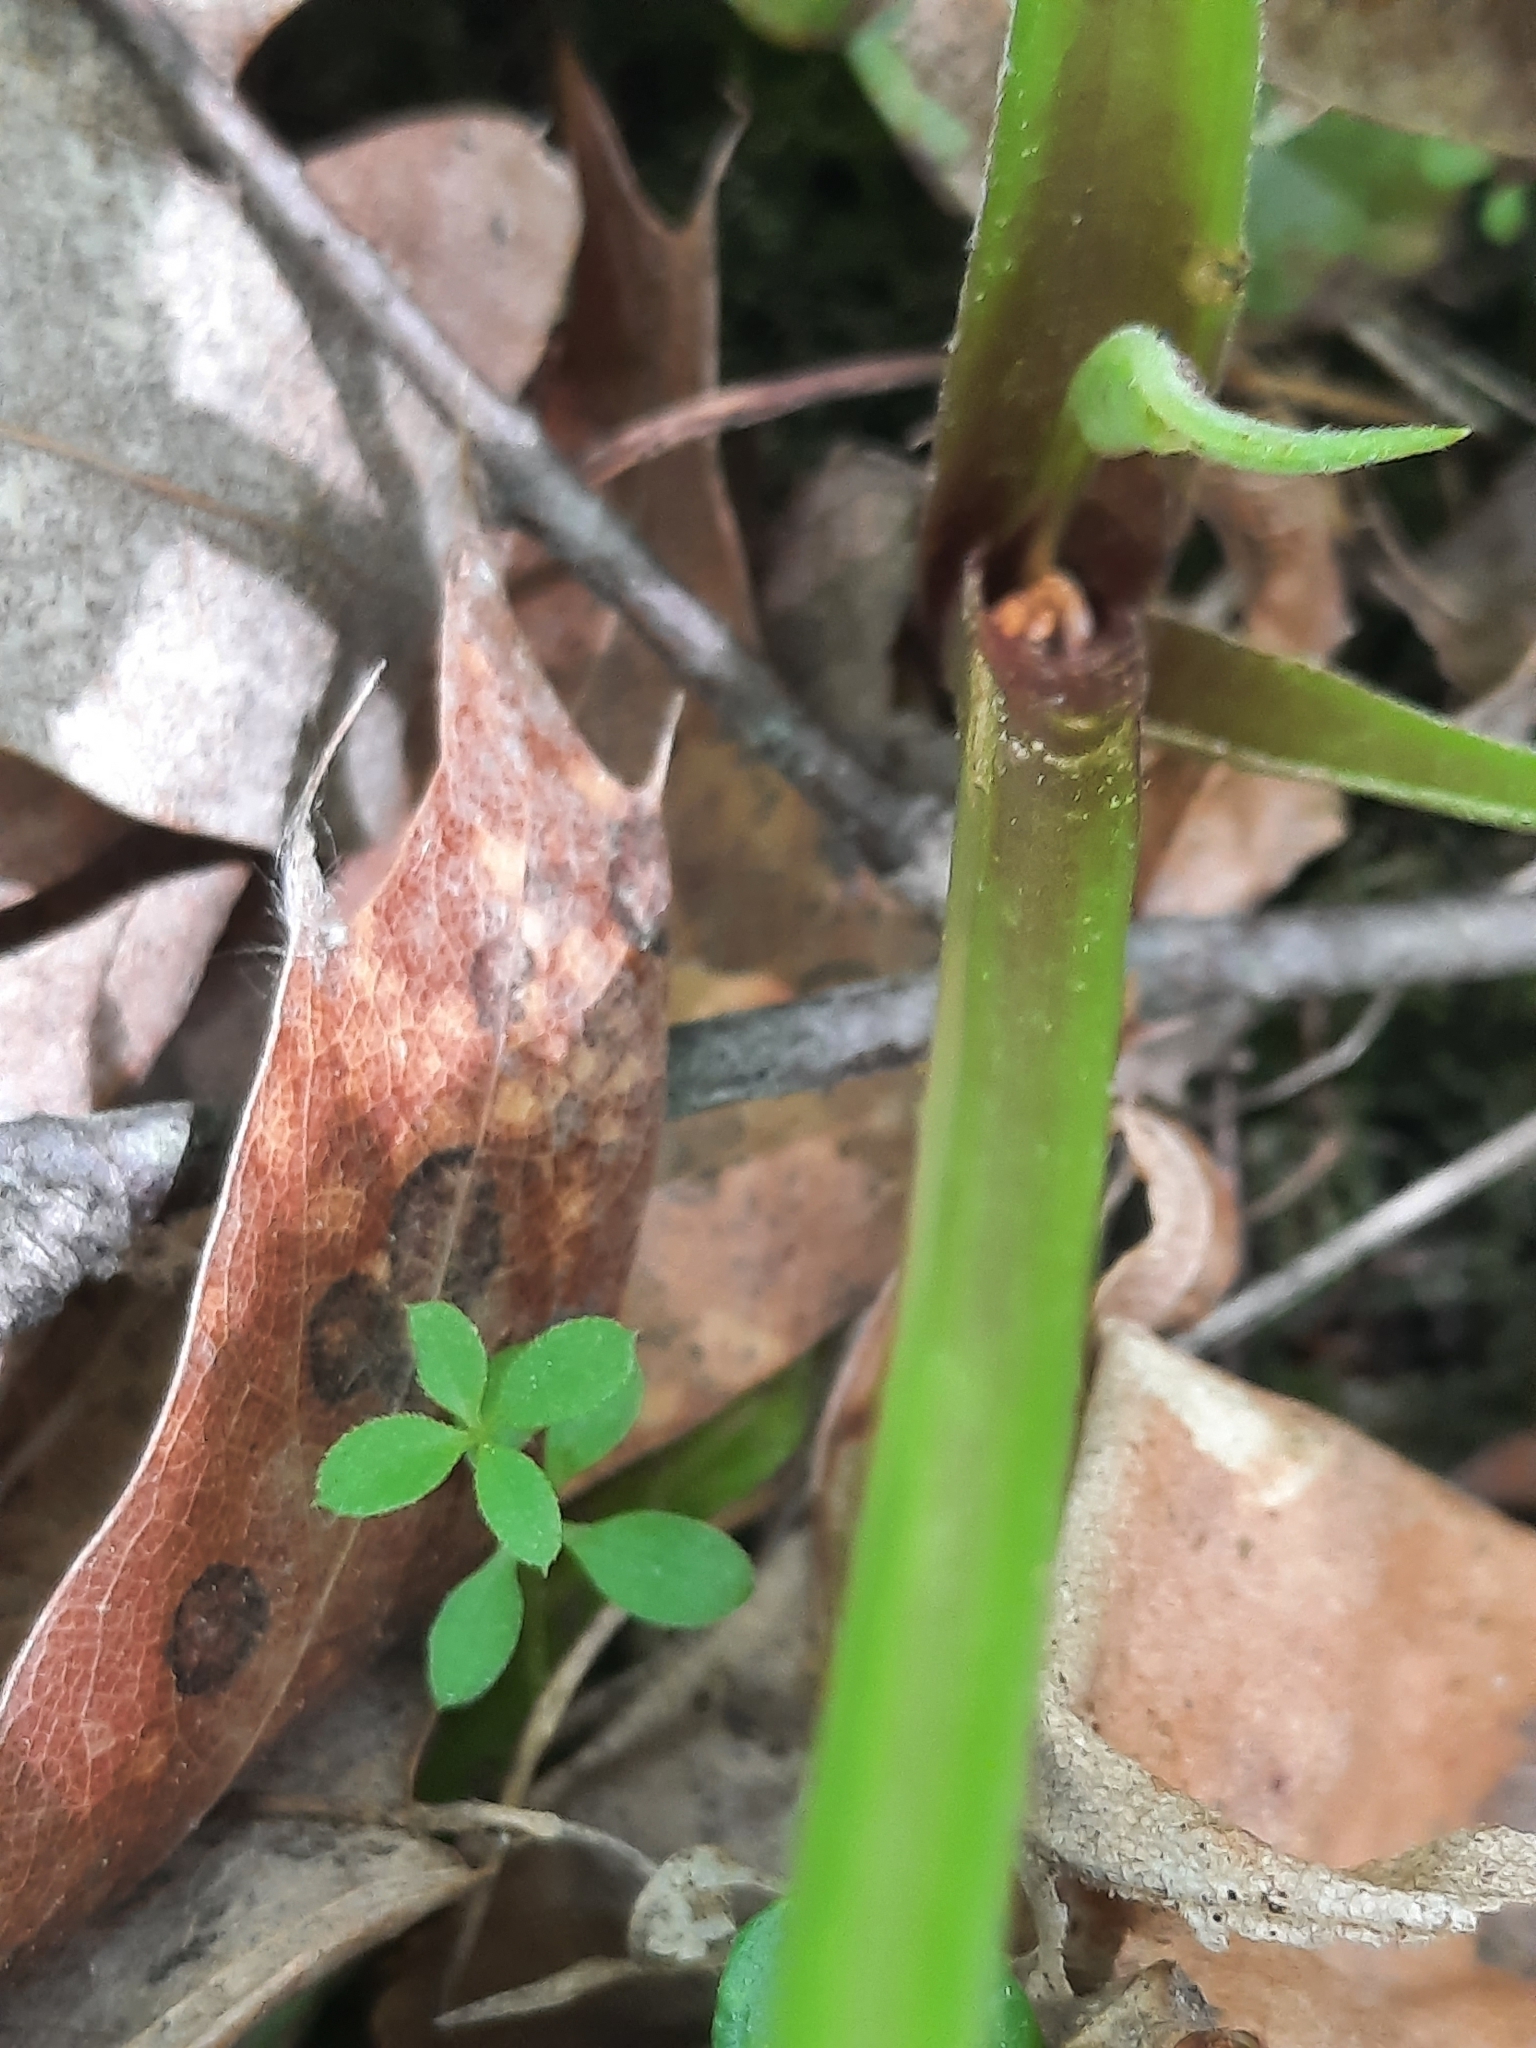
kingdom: Plantae
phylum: Tracheophyta
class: Magnoliopsida
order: Asterales
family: Asteraceae
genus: Eurybia
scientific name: Eurybia macrophylla
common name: Big-leaved aster
